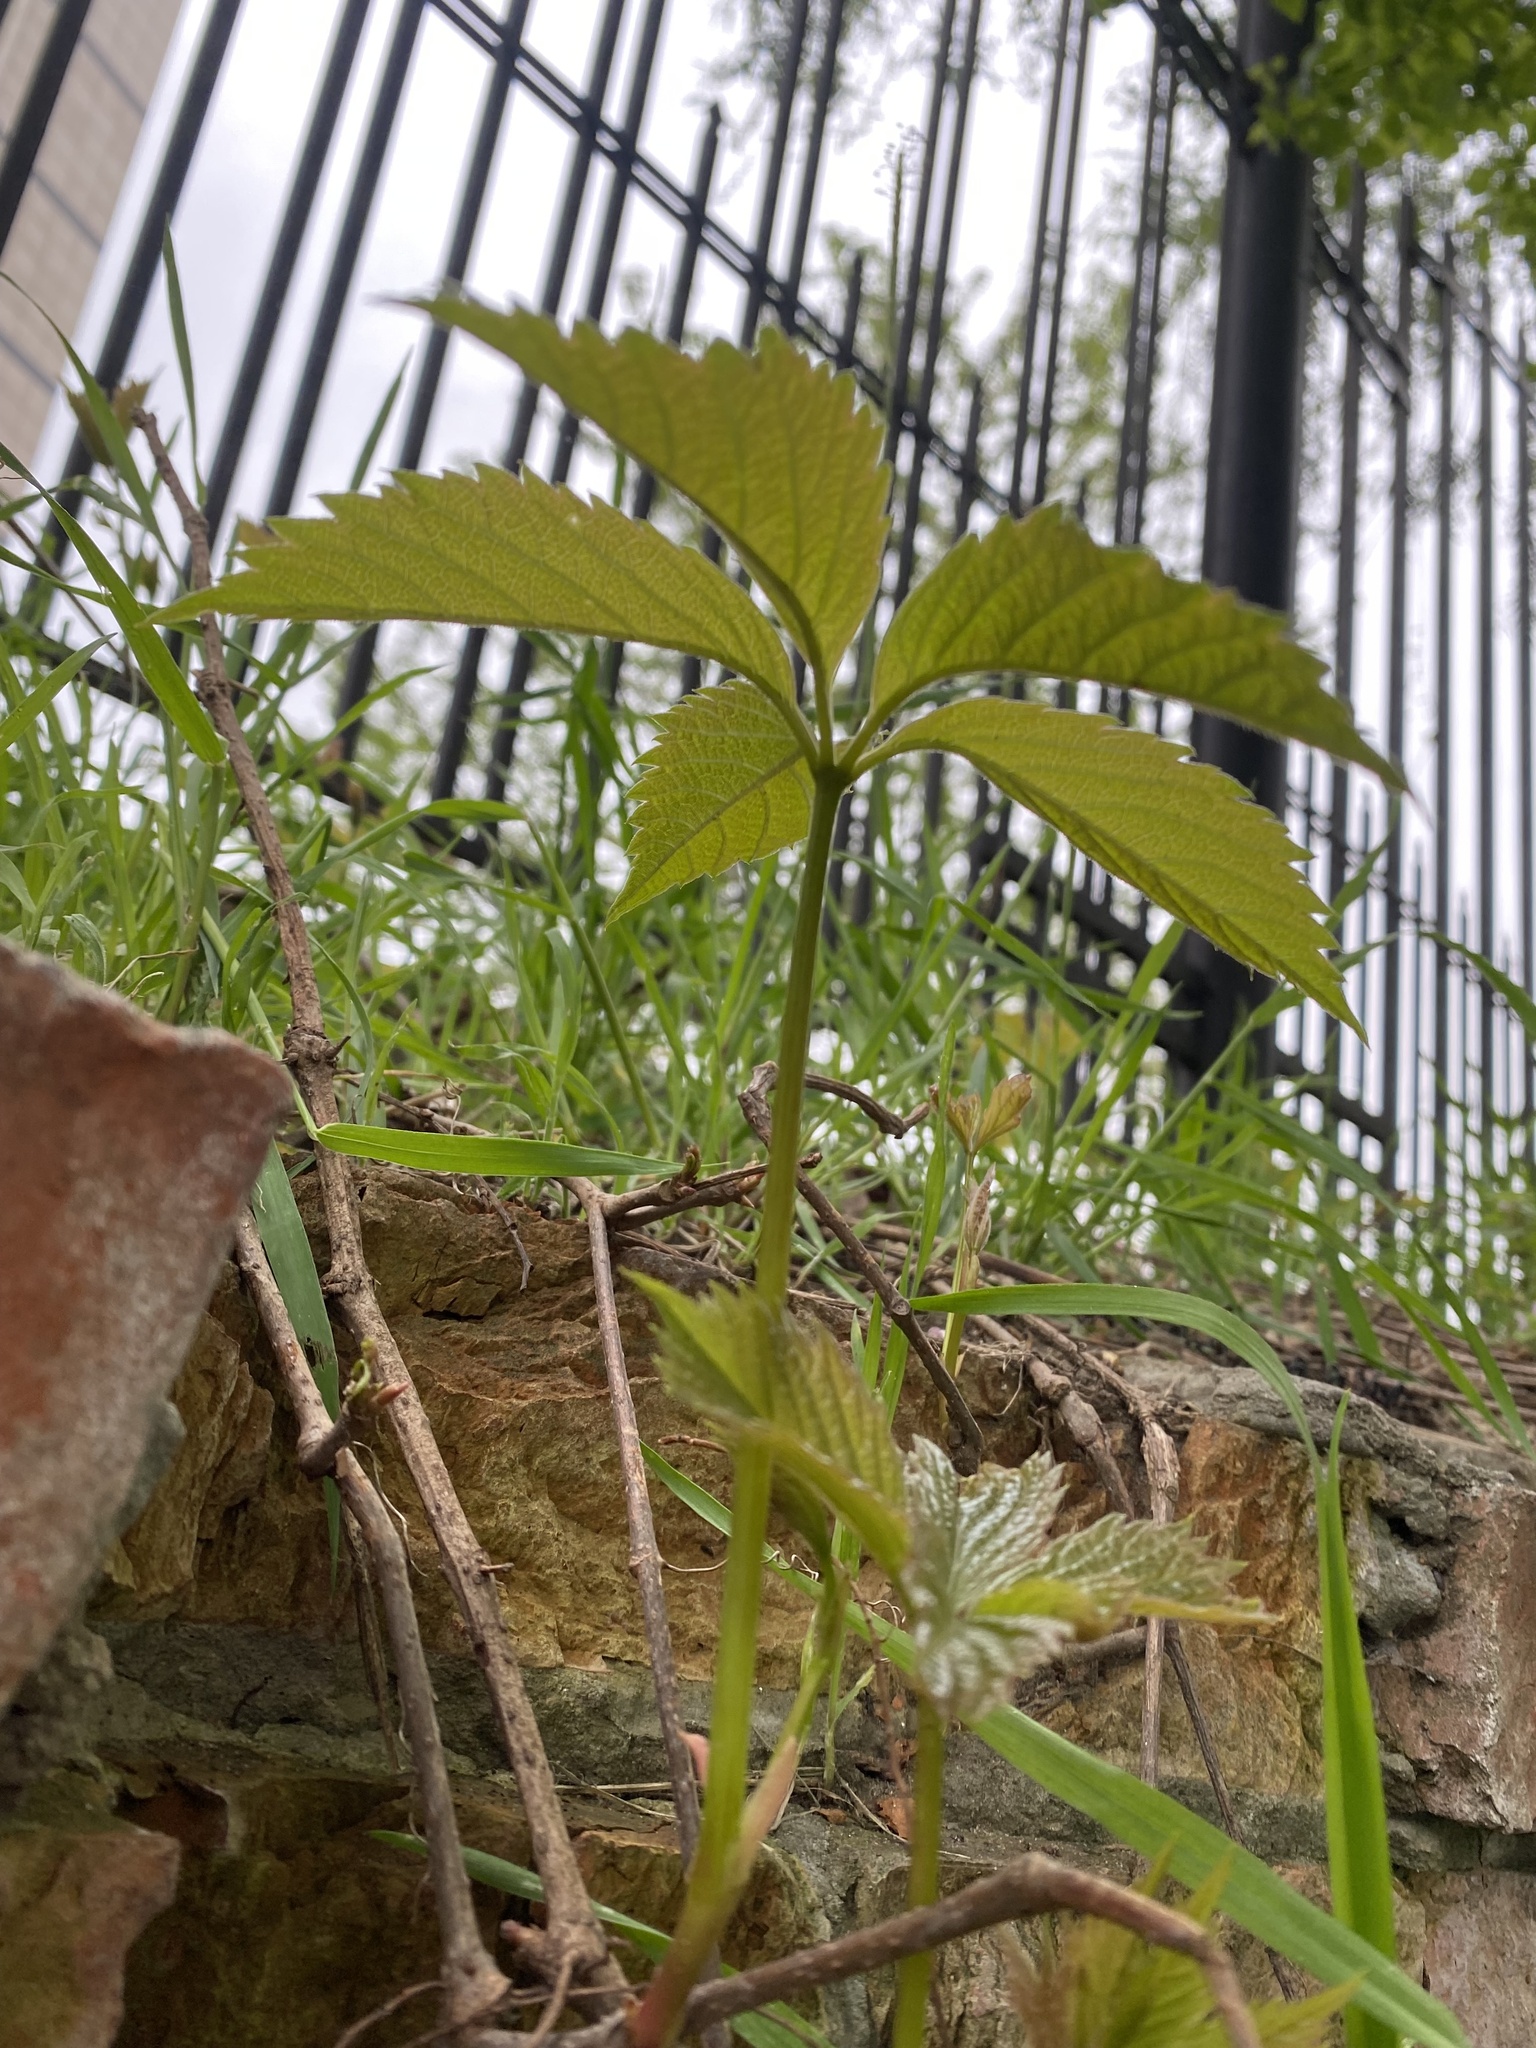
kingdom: Plantae
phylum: Tracheophyta
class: Magnoliopsida
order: Vitales
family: Vitaceae
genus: Parthenocissus
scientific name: Parthenocissus inserta
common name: False virginia-creeper
